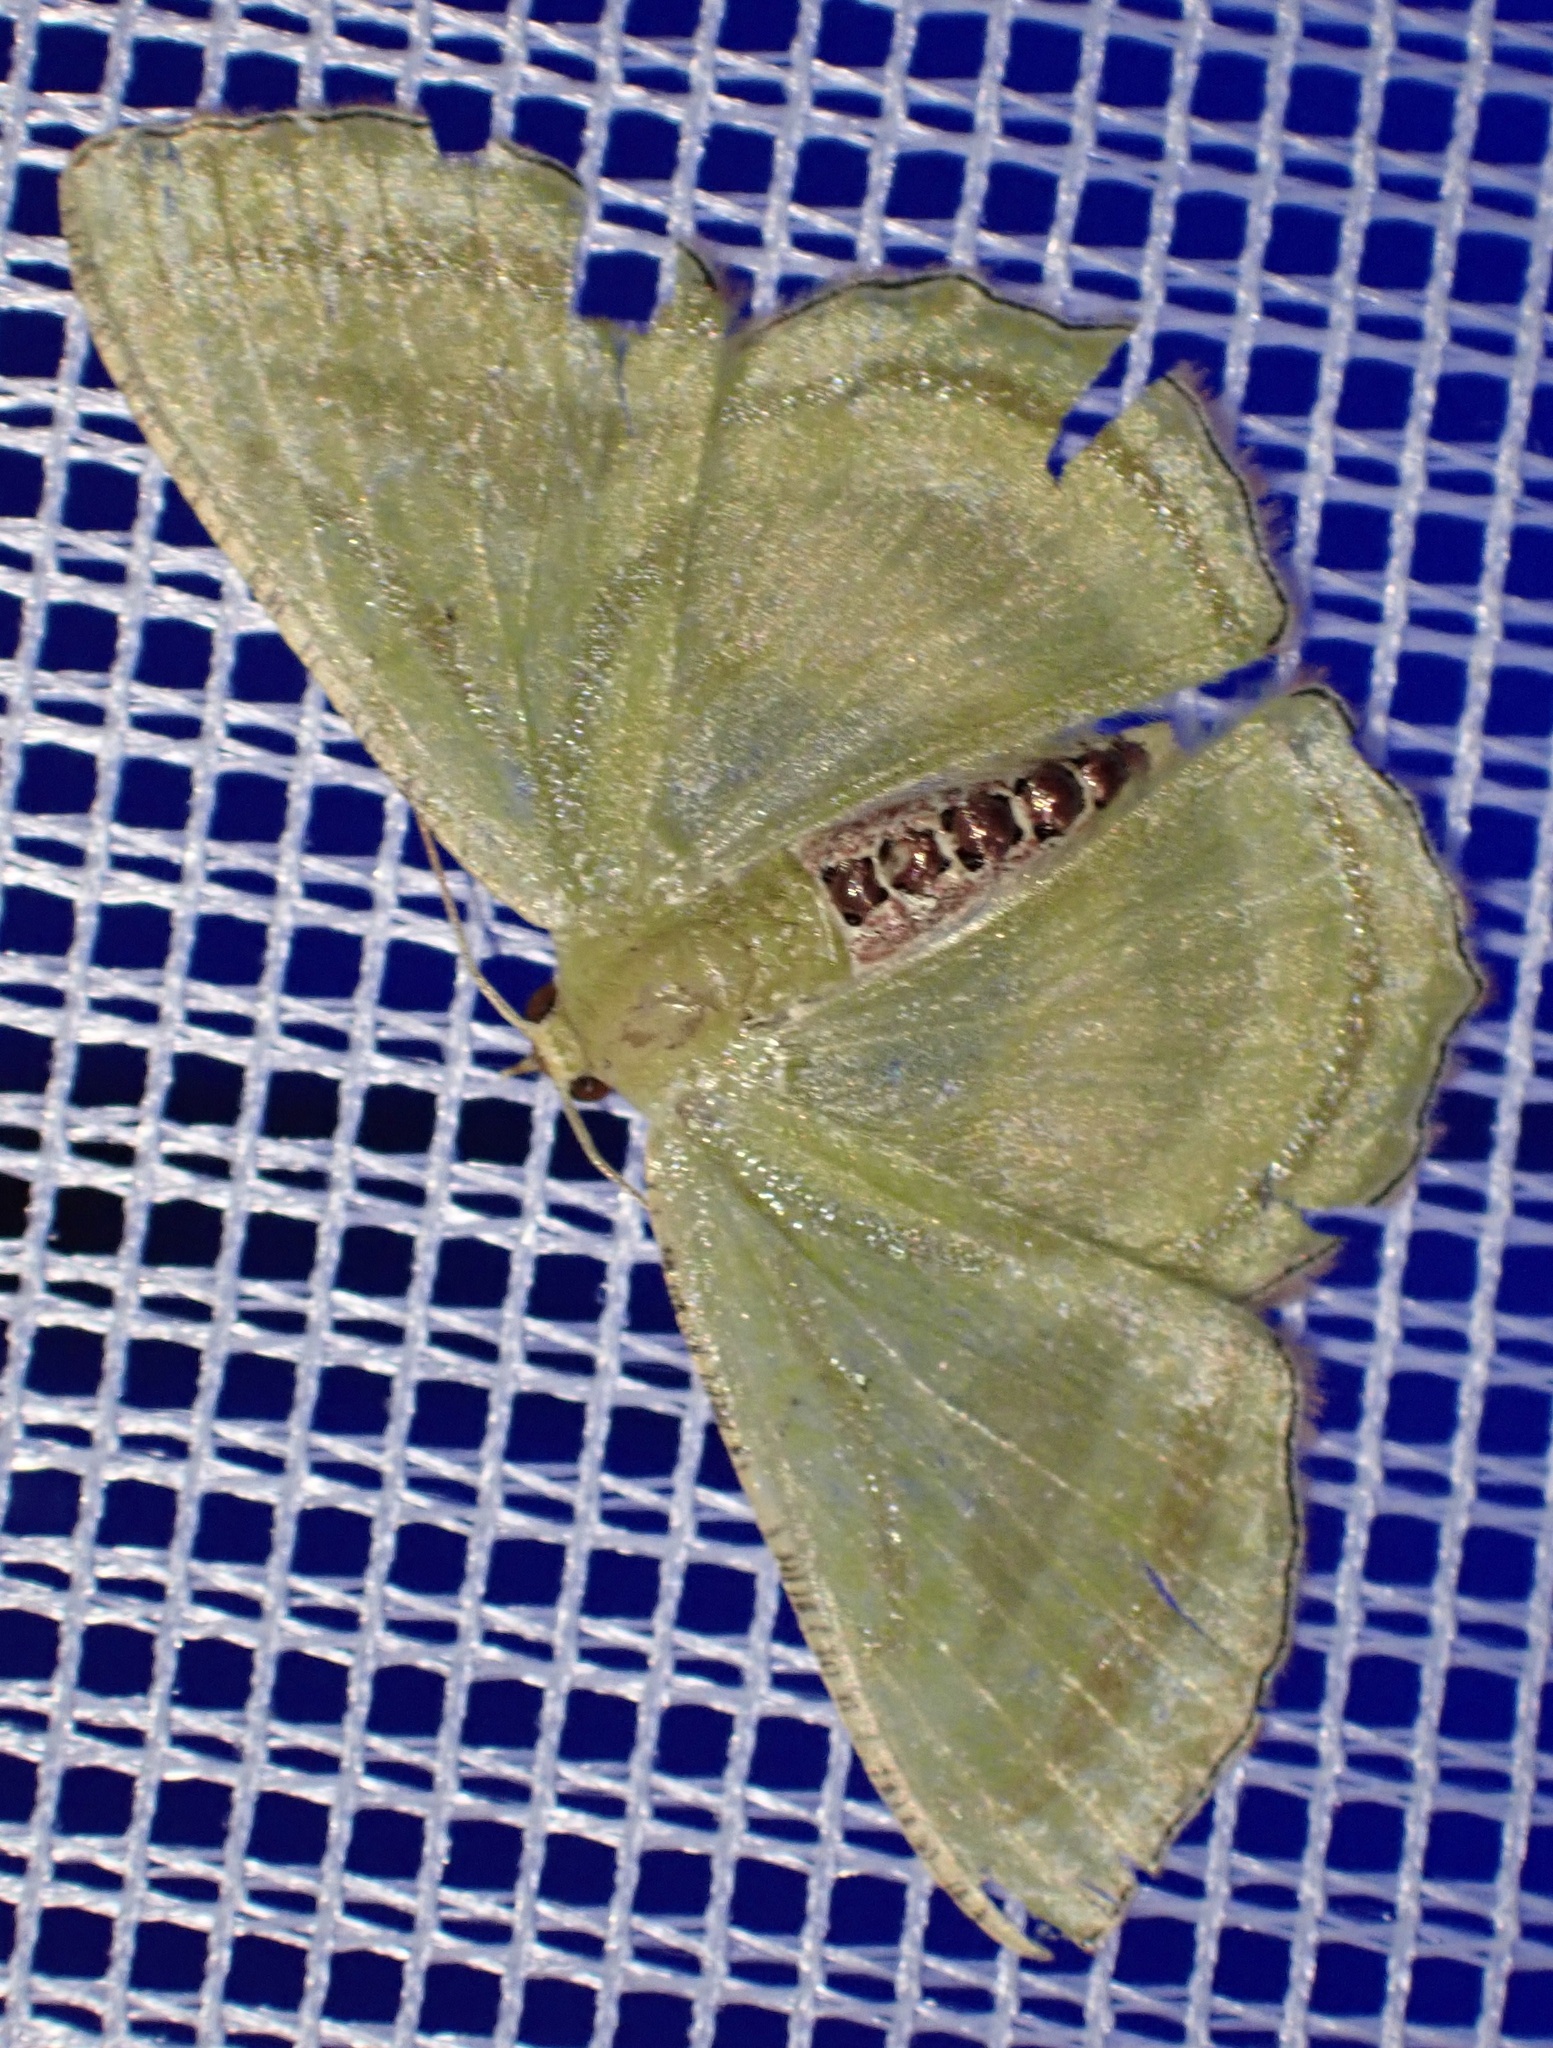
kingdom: Animalia
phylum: Arthropoda
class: Insecta
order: Lepidoptera
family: Geometridae
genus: Metallochlora
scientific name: Metallochlora lineata
